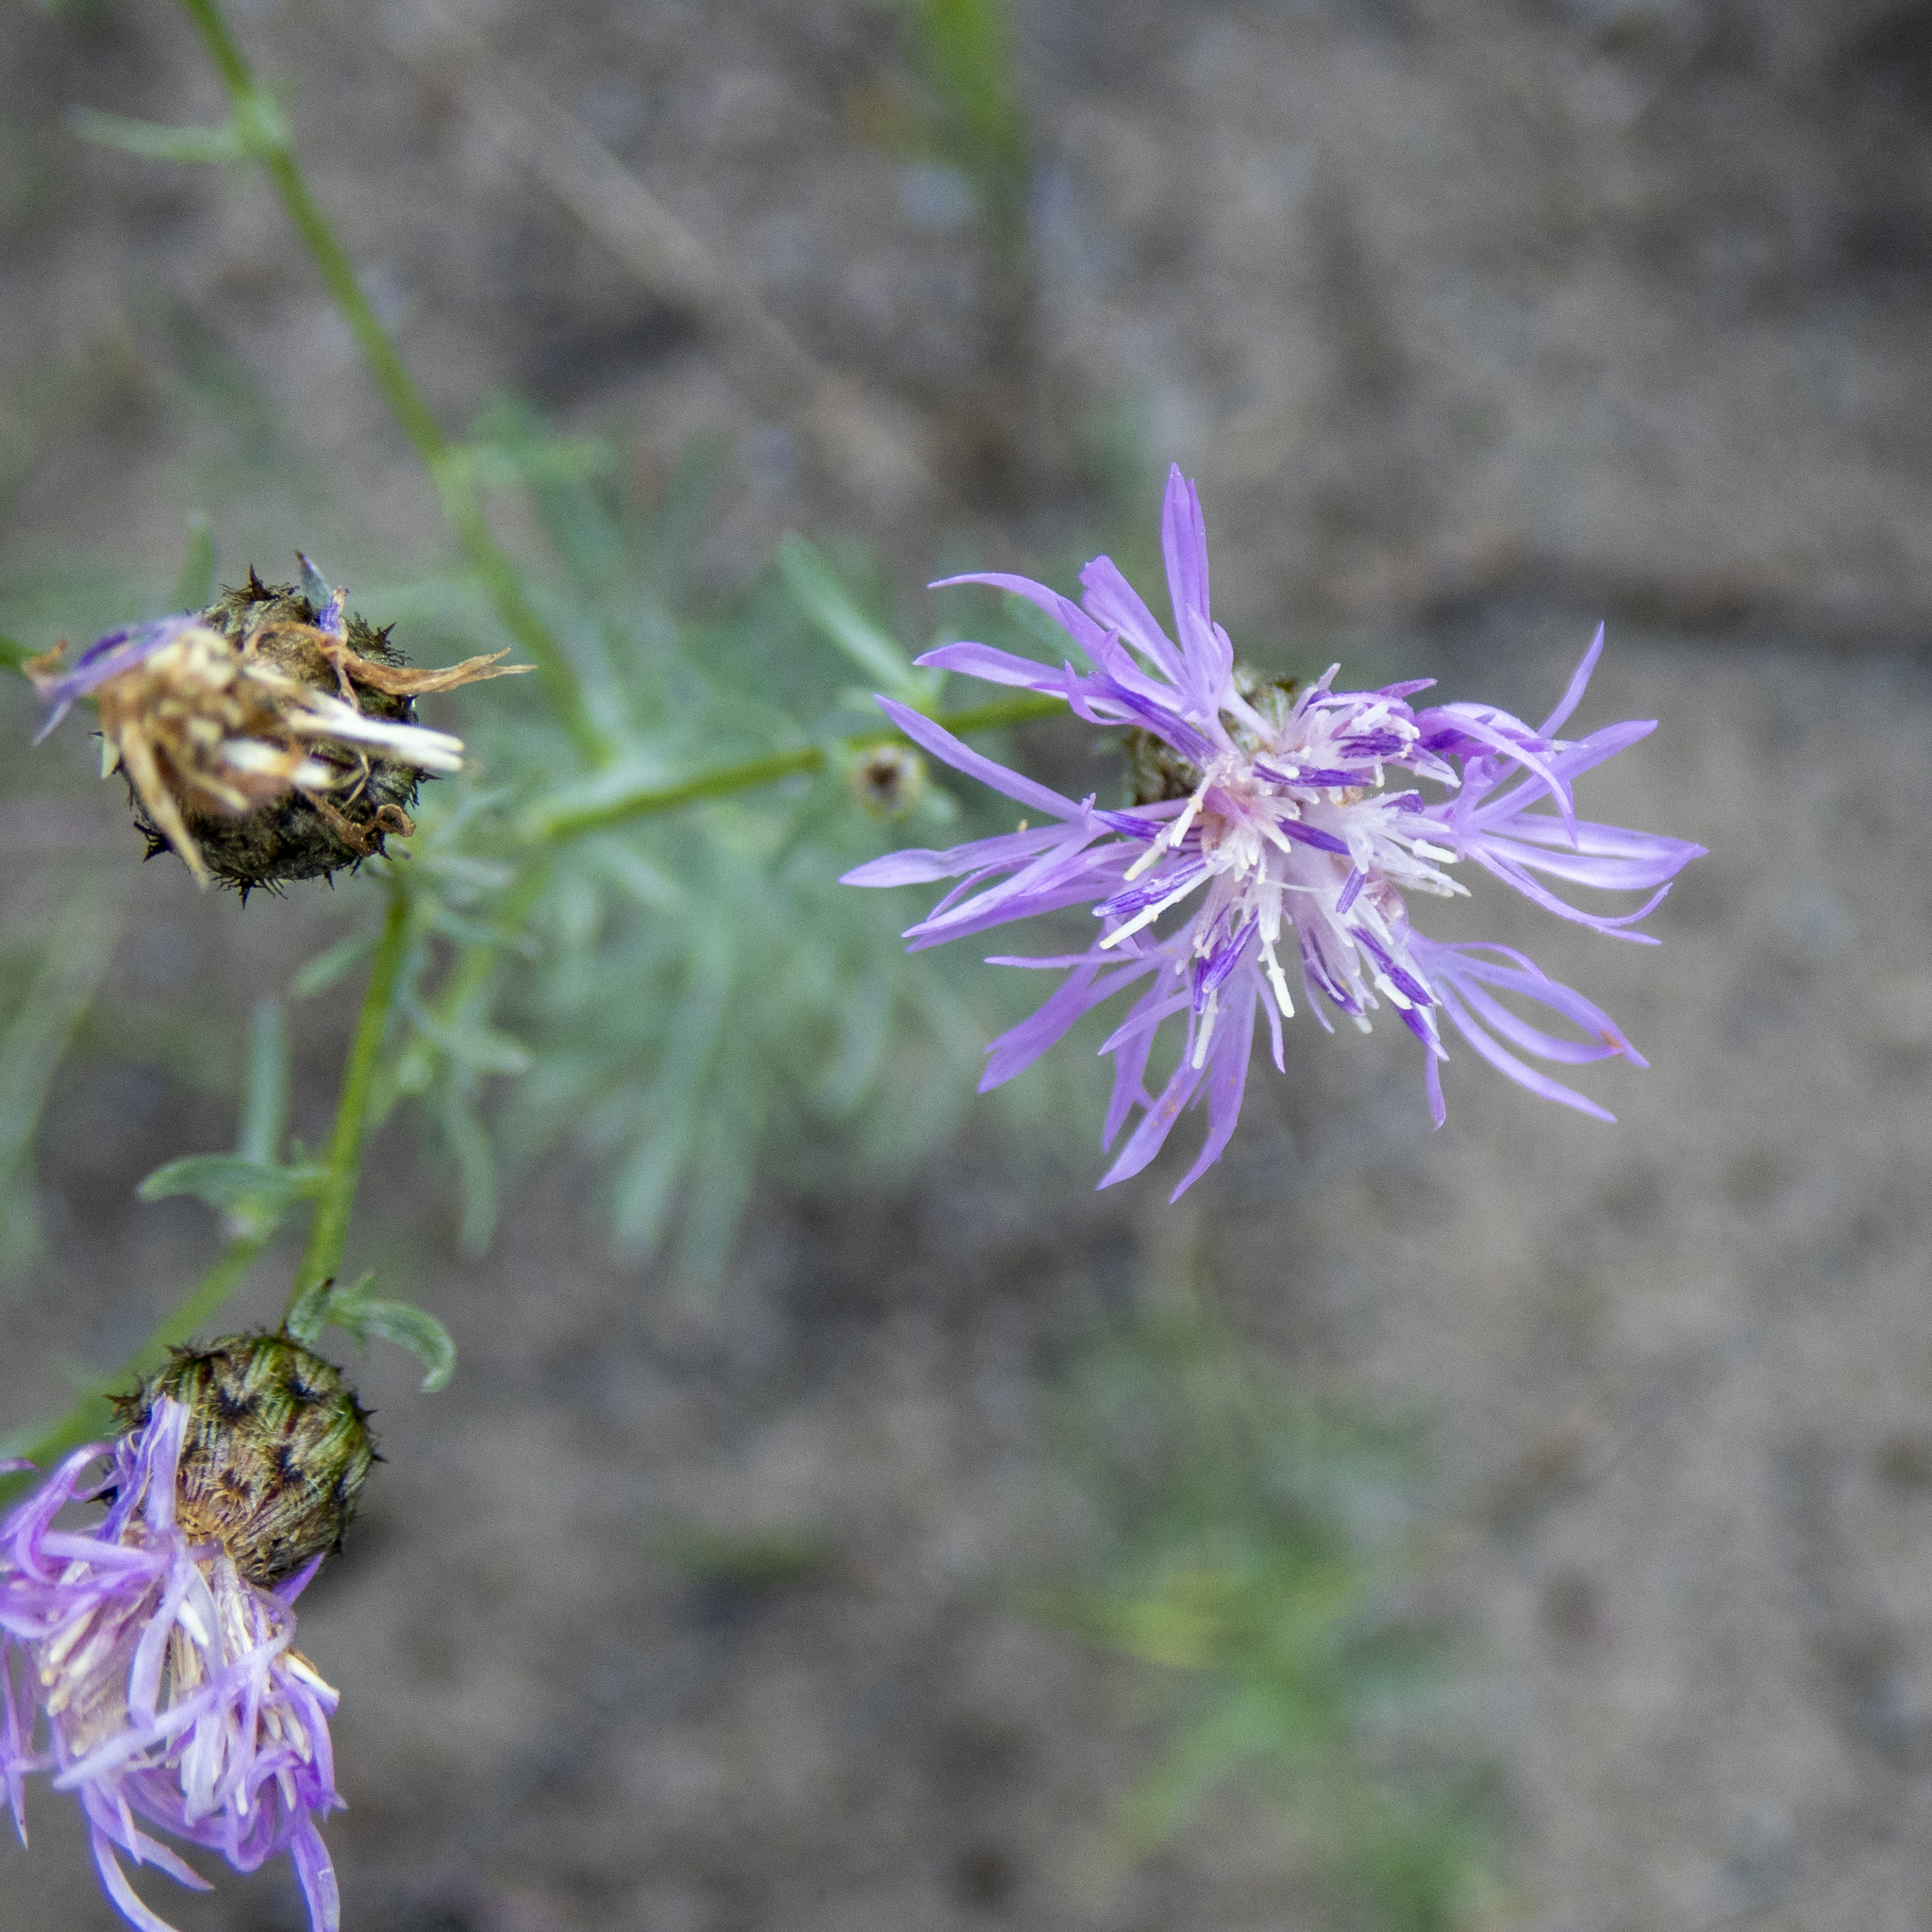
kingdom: Plantae
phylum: Tracheophyta
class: Magnoliopsida
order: Asterales
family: Asteraceae
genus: Centaurea
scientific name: Centaurea stoebe
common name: Spotted knapweed
